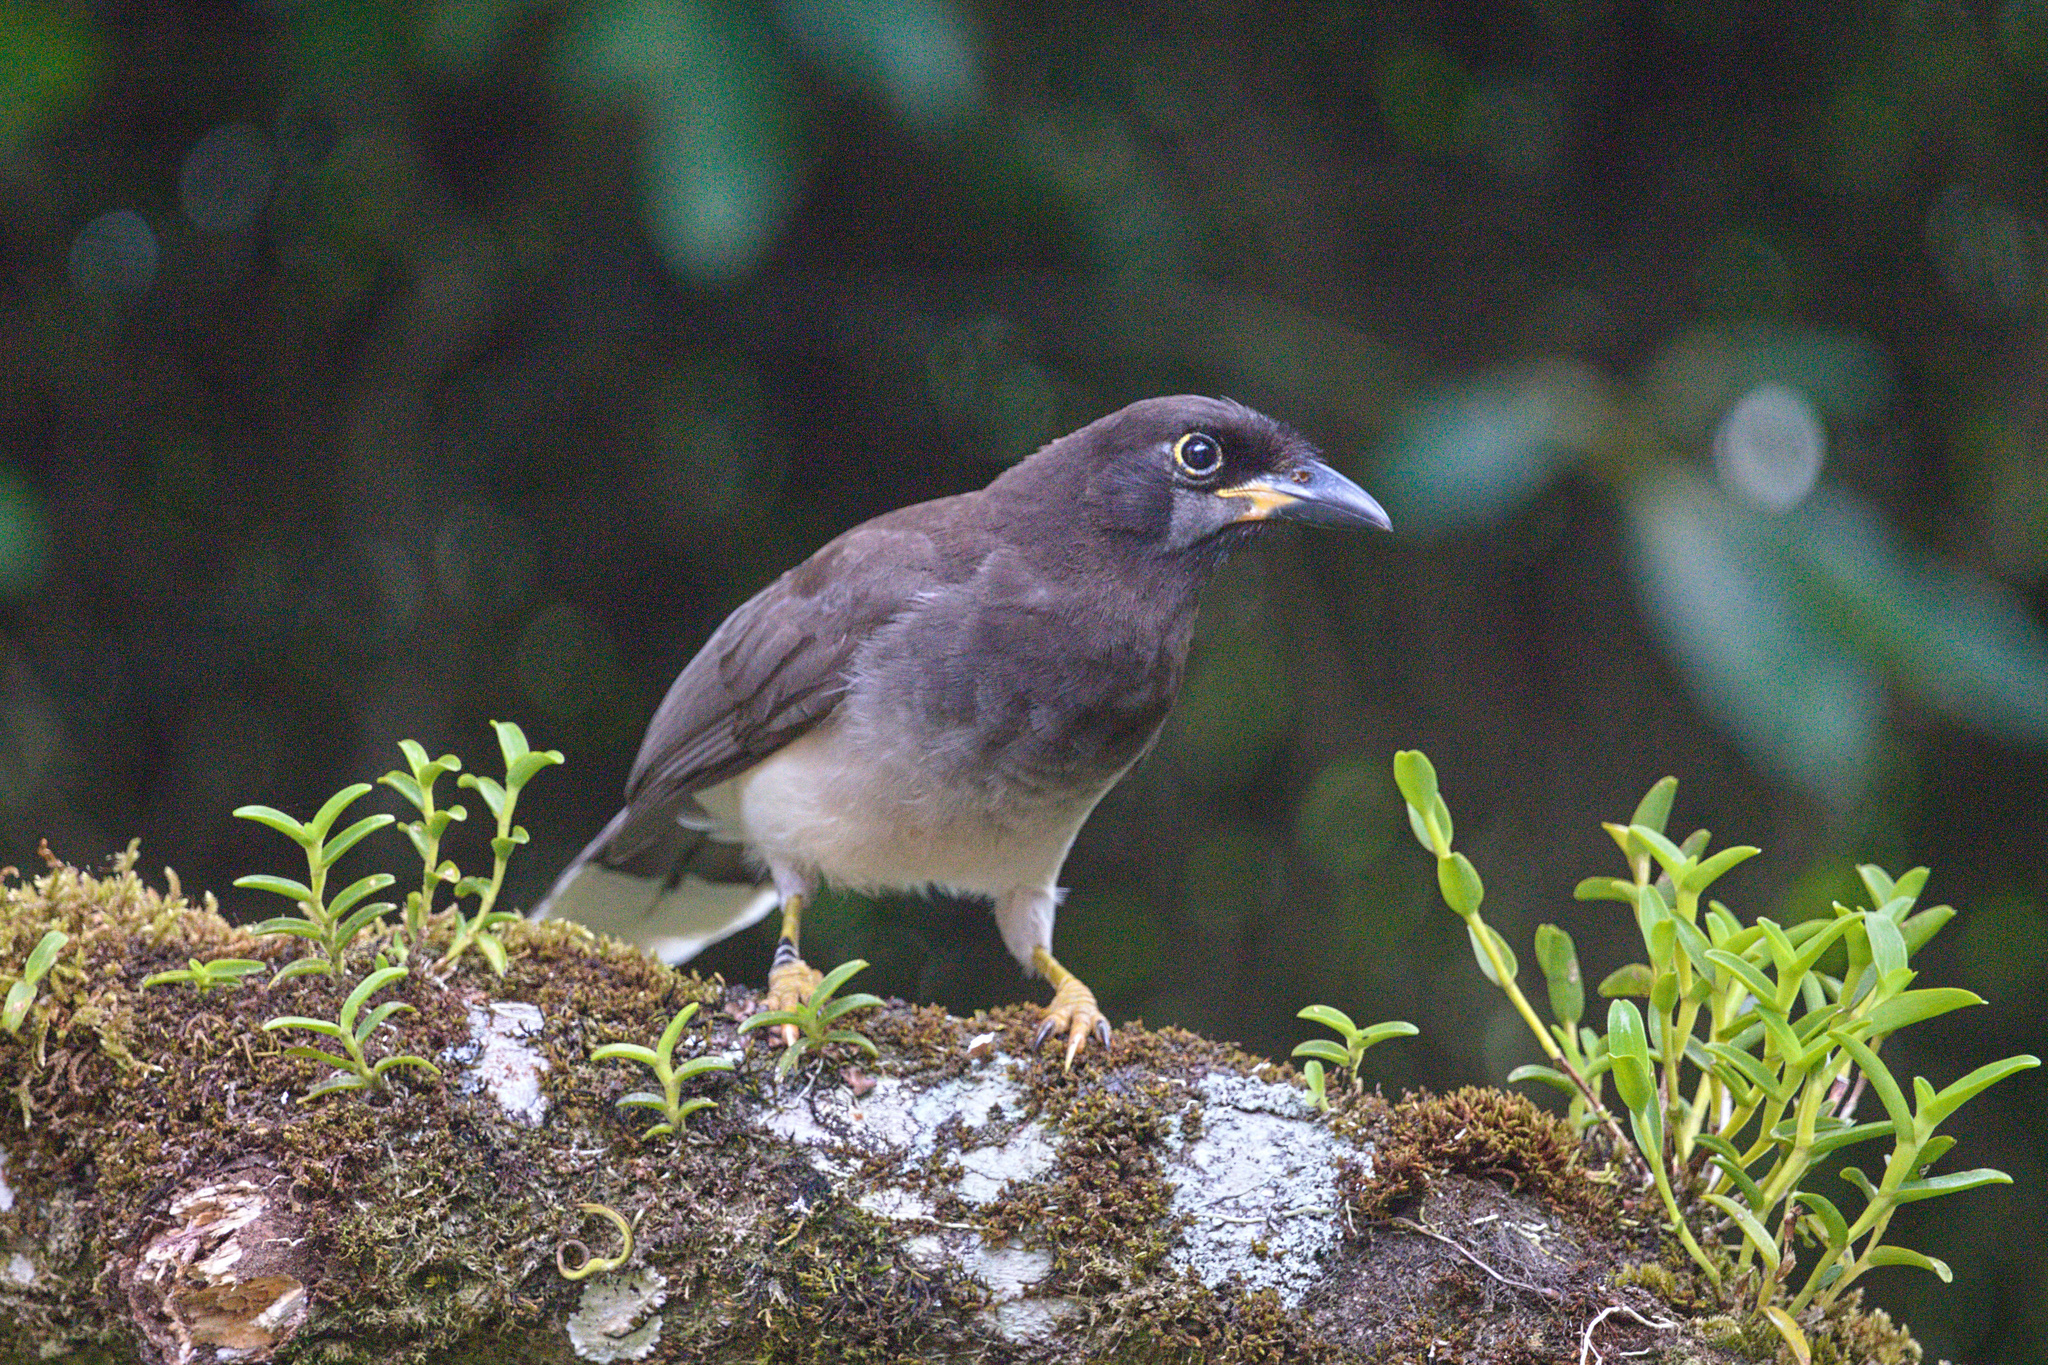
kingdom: Animalia
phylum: Chordata
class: Aves
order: Passeriformes
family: Corvidae
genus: Psilorhinus
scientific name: Psilorhinus morio
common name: Brown jay
